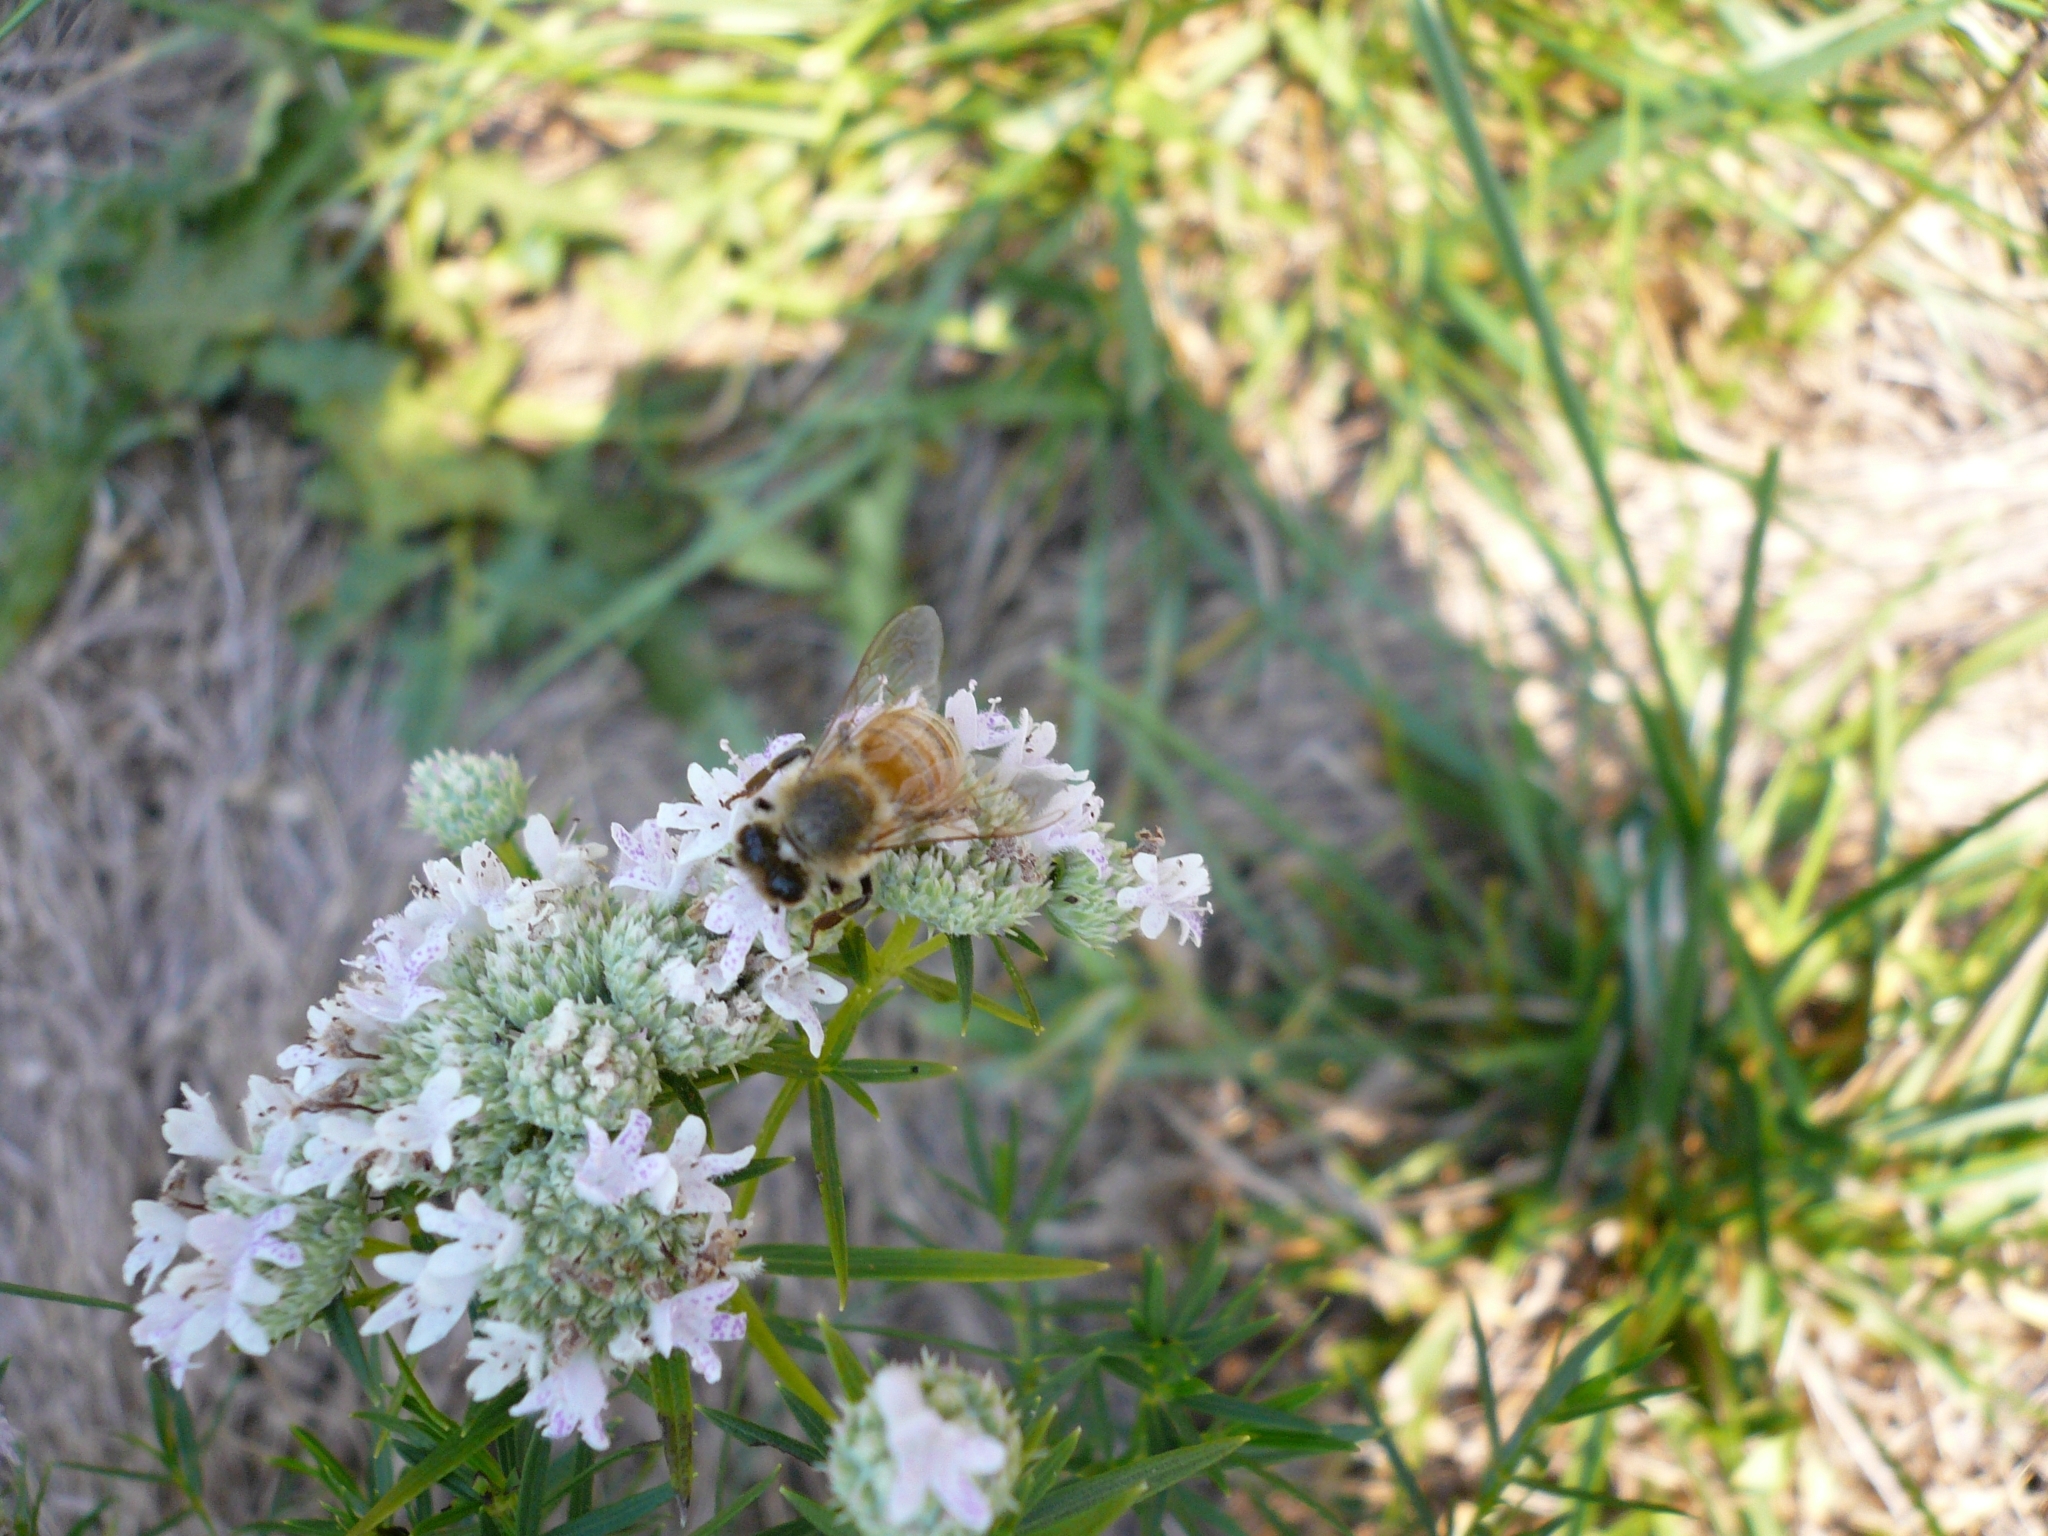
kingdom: Animalia
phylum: Arthropoda
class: Insecta
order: Hymenoptera
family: Apidae
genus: Apis
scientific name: Apis mellifera
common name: Honey bee
